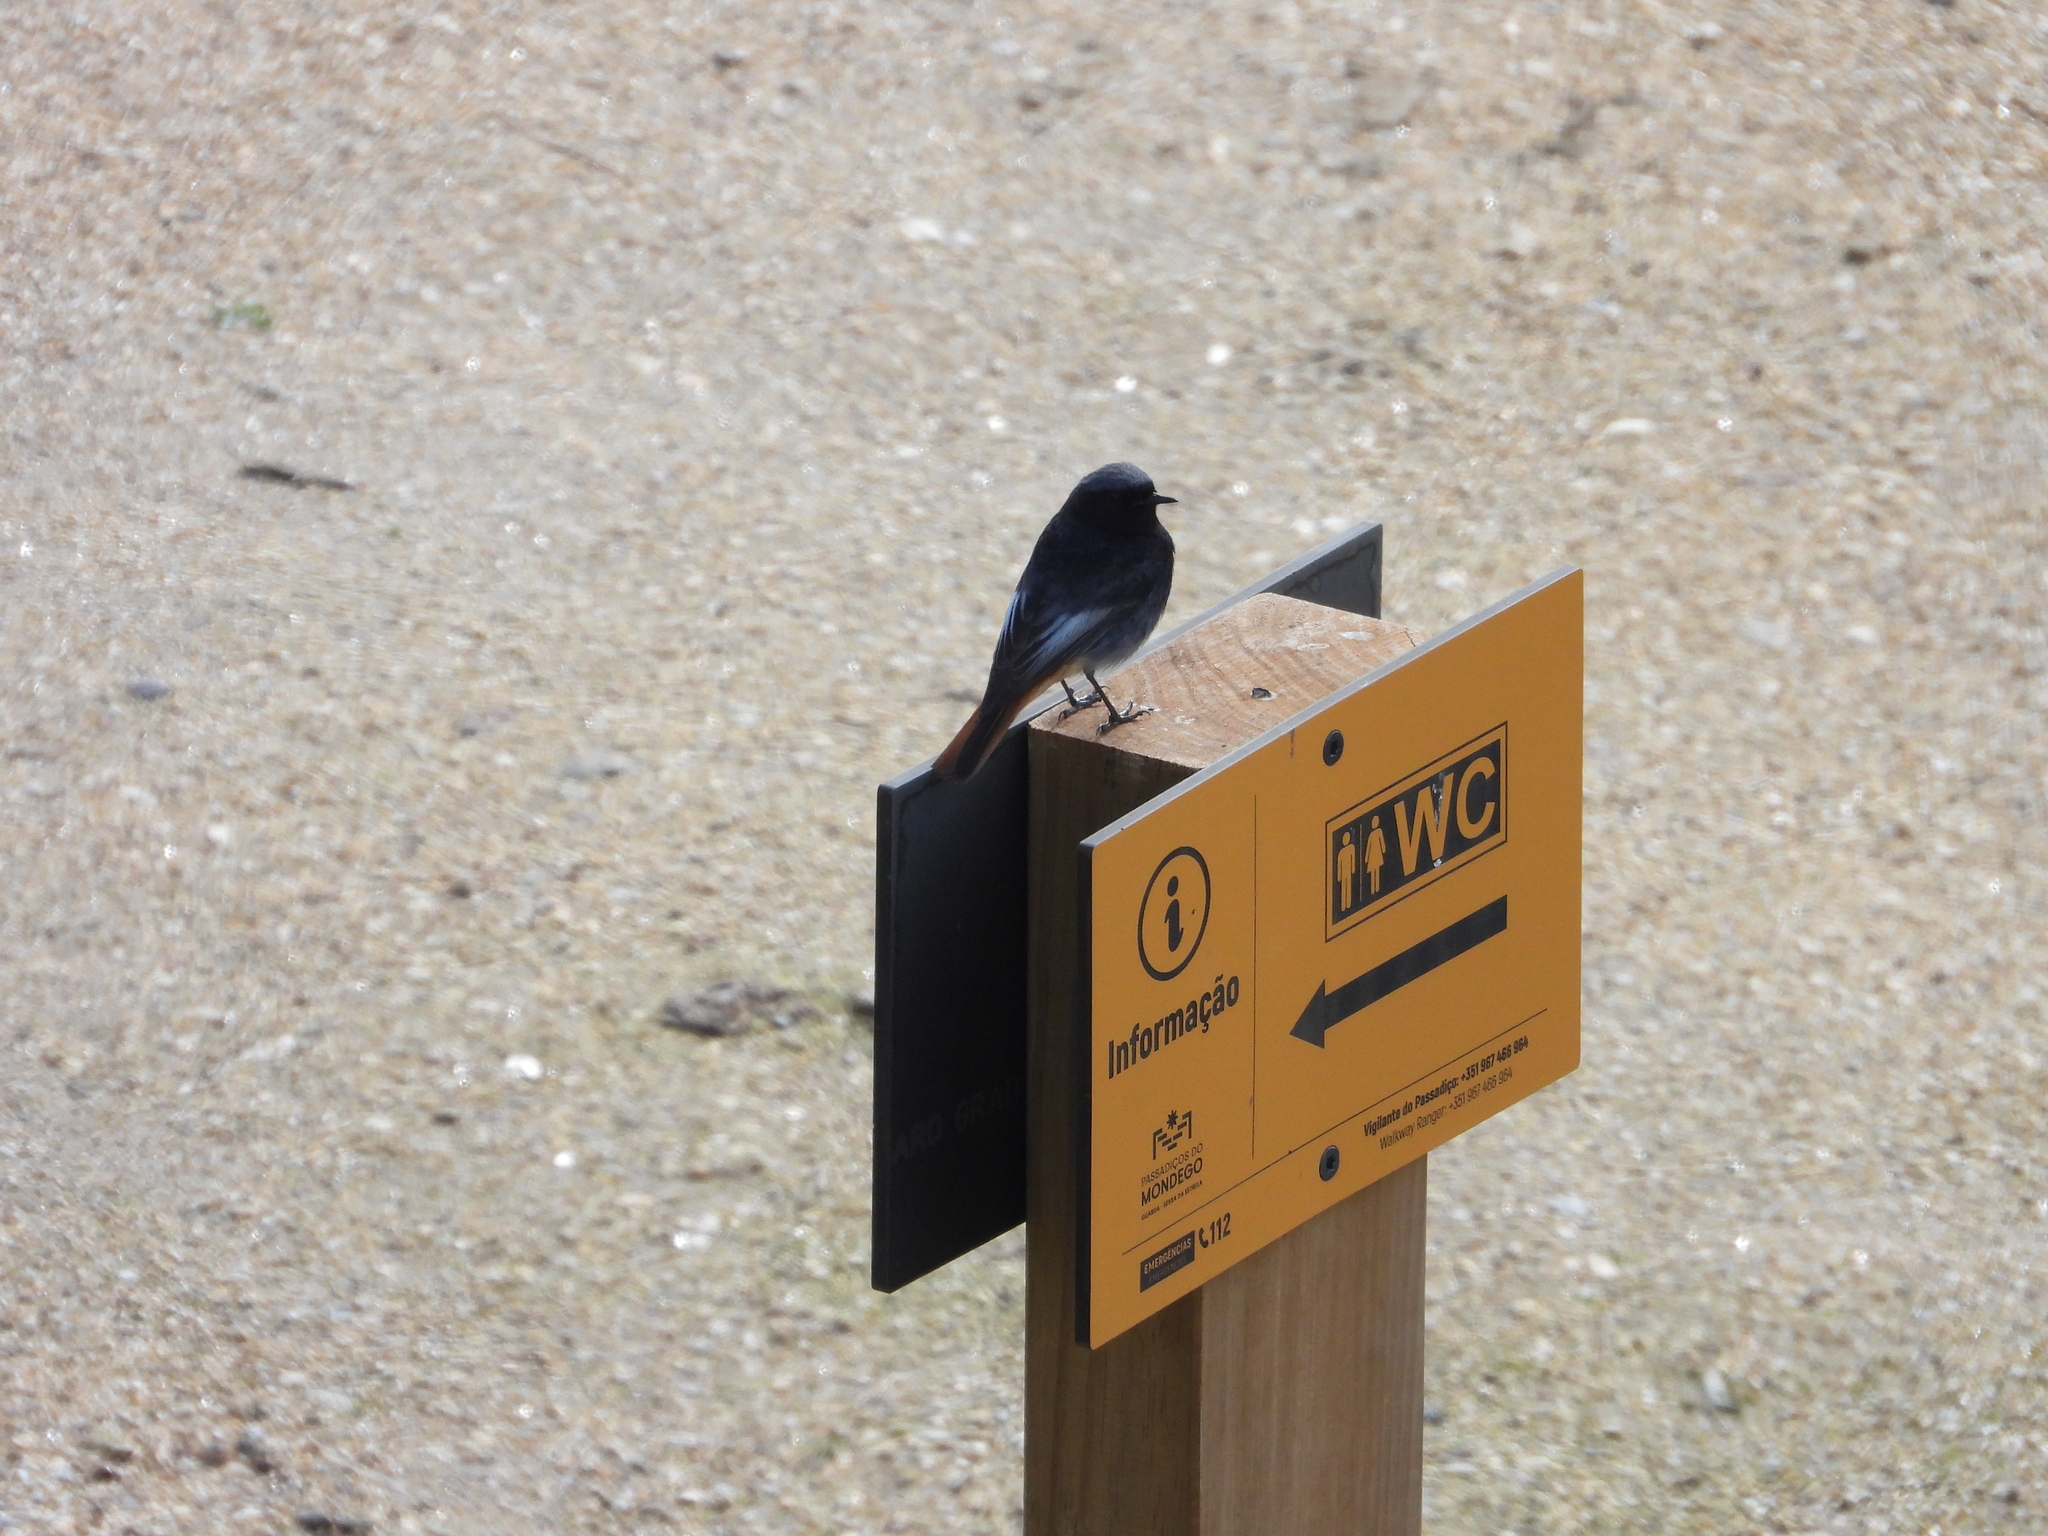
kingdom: Animalia
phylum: Chordata
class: Aves
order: Passeriformes
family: Muscicapidae
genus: Phoenicurus
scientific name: Phoenicurus ochruros
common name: Black redstart
